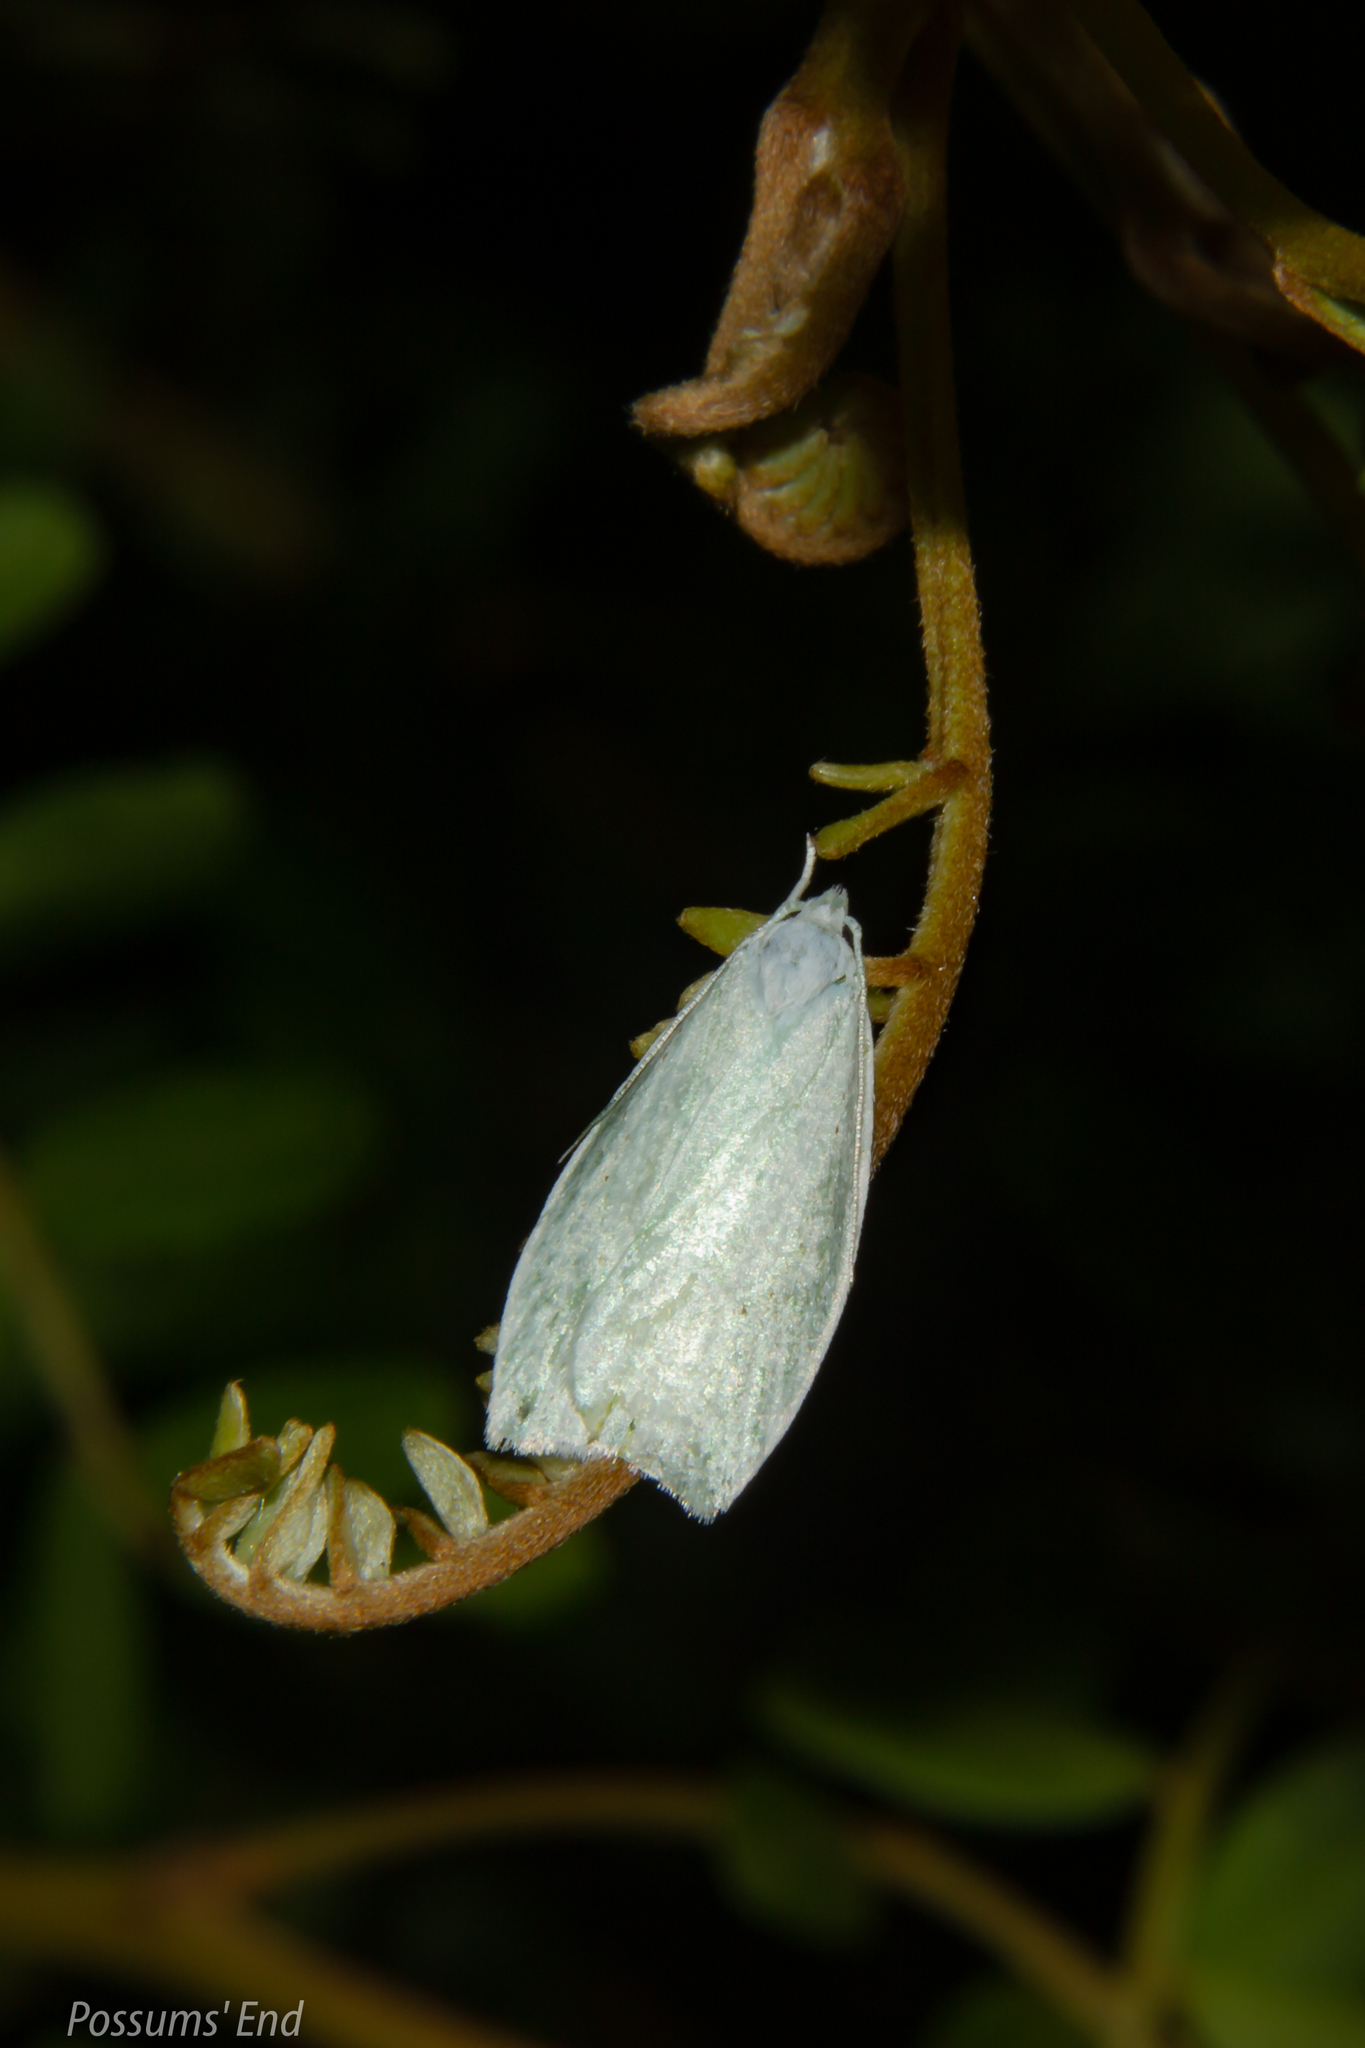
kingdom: Animalia
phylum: Arthropoda
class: Insecta
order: Lepidoptera
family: Oecophoridae
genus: Nymphostola
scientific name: Nymphostola galactina
